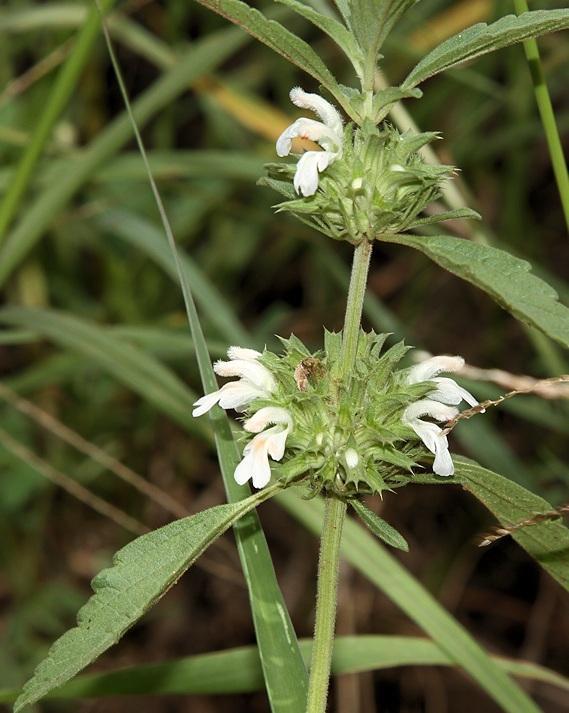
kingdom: Plantae
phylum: Tracheophyta
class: Magnoliopsida
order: Lamiales
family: Lamiaceae
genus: Leucas
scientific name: Leucas sexdentata
